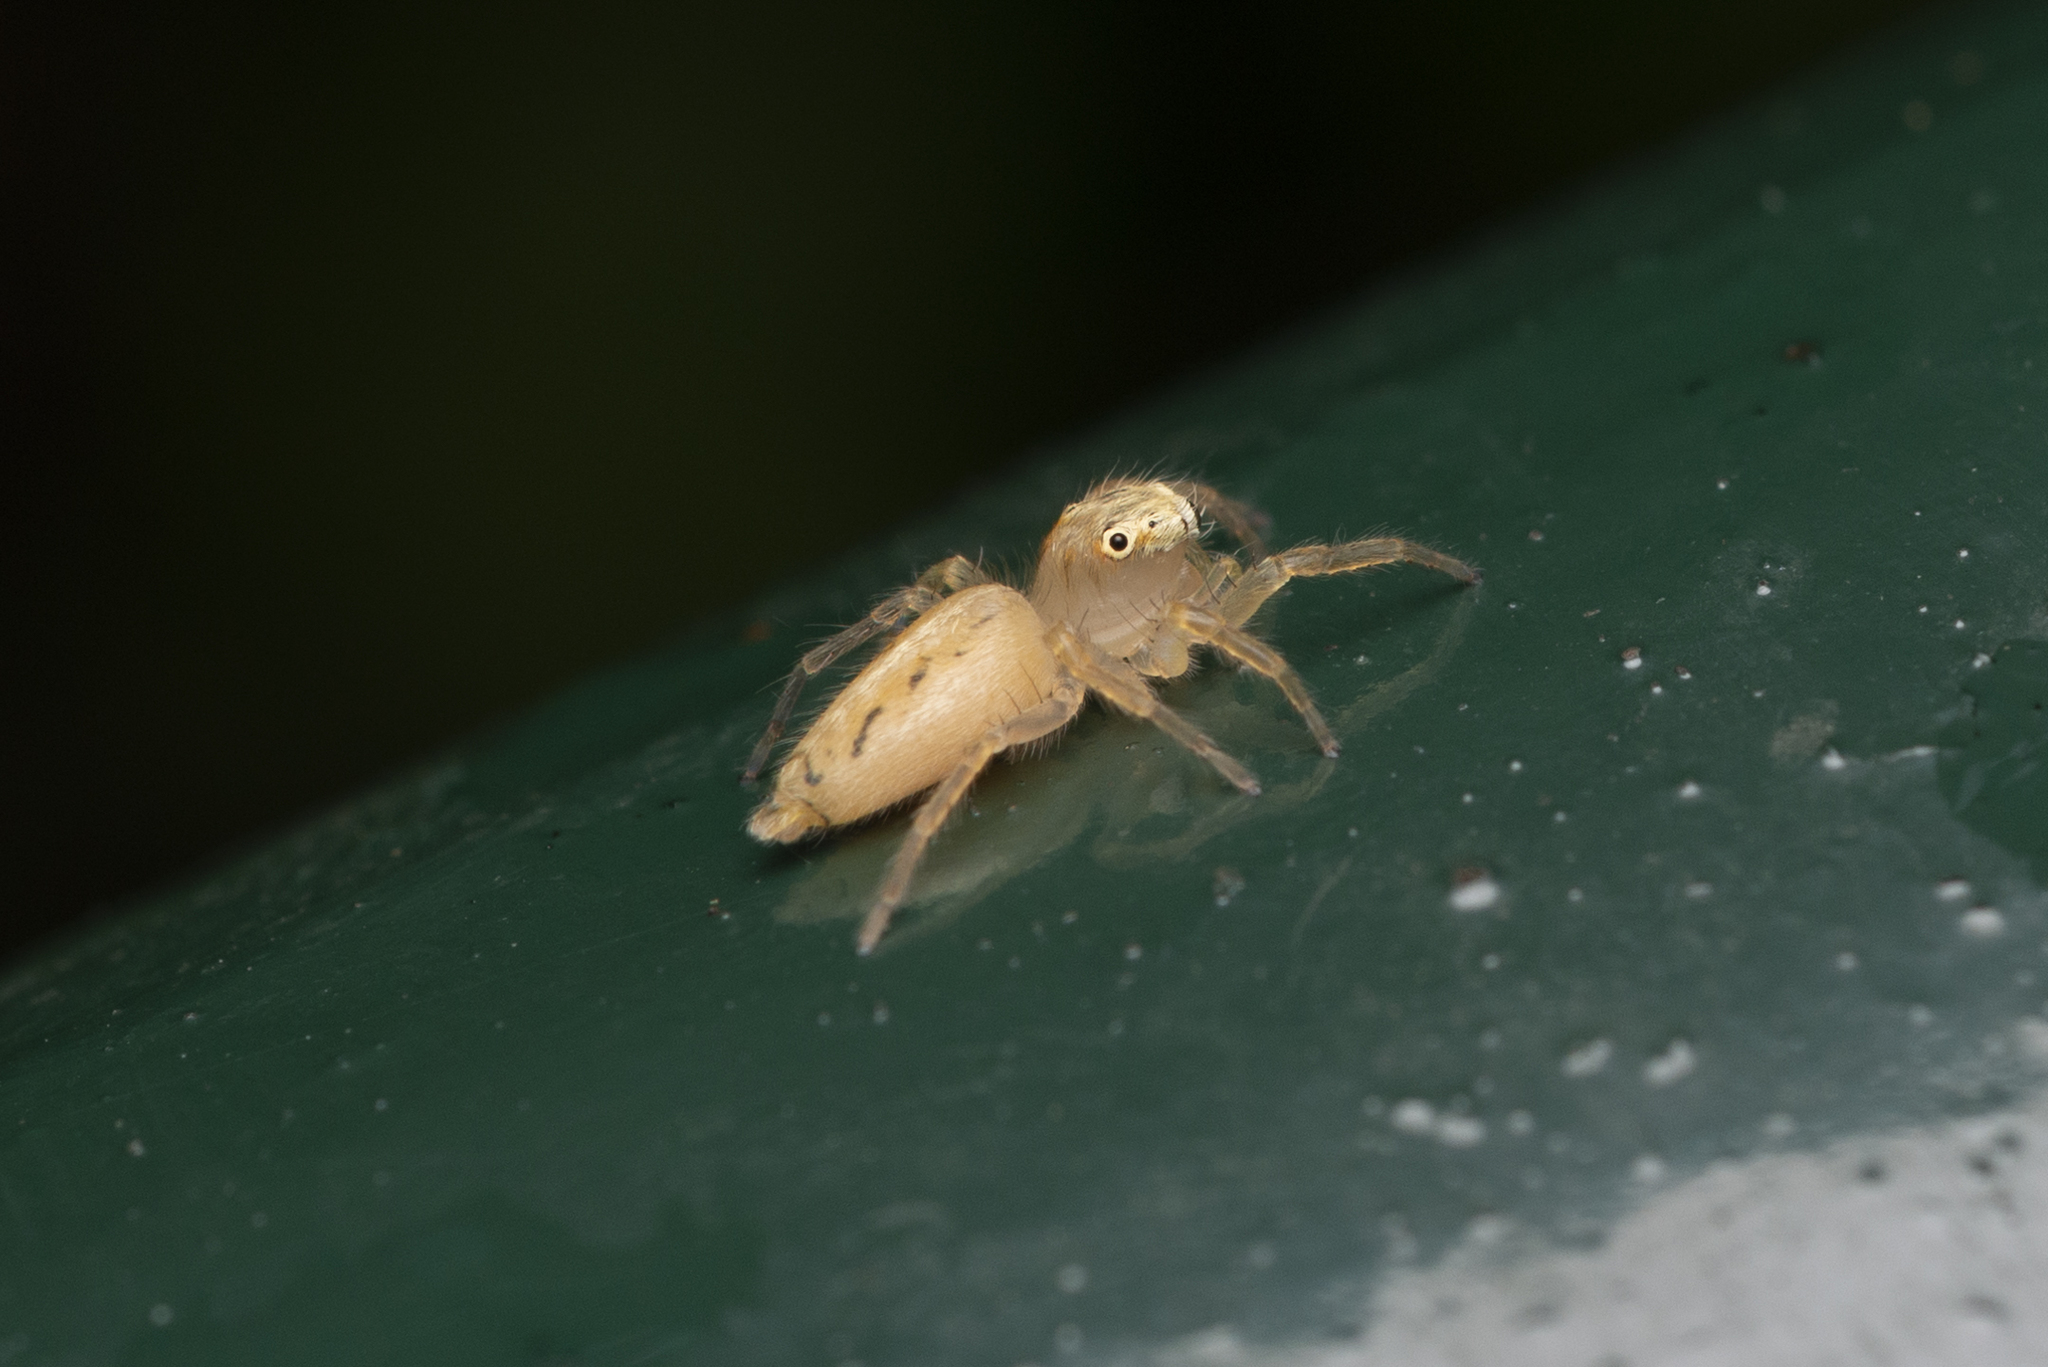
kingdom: Animalia
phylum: Arthropoda
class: Arachnida
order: Araneae
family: Salticidae
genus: Telamonia
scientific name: Telamonia caprina
